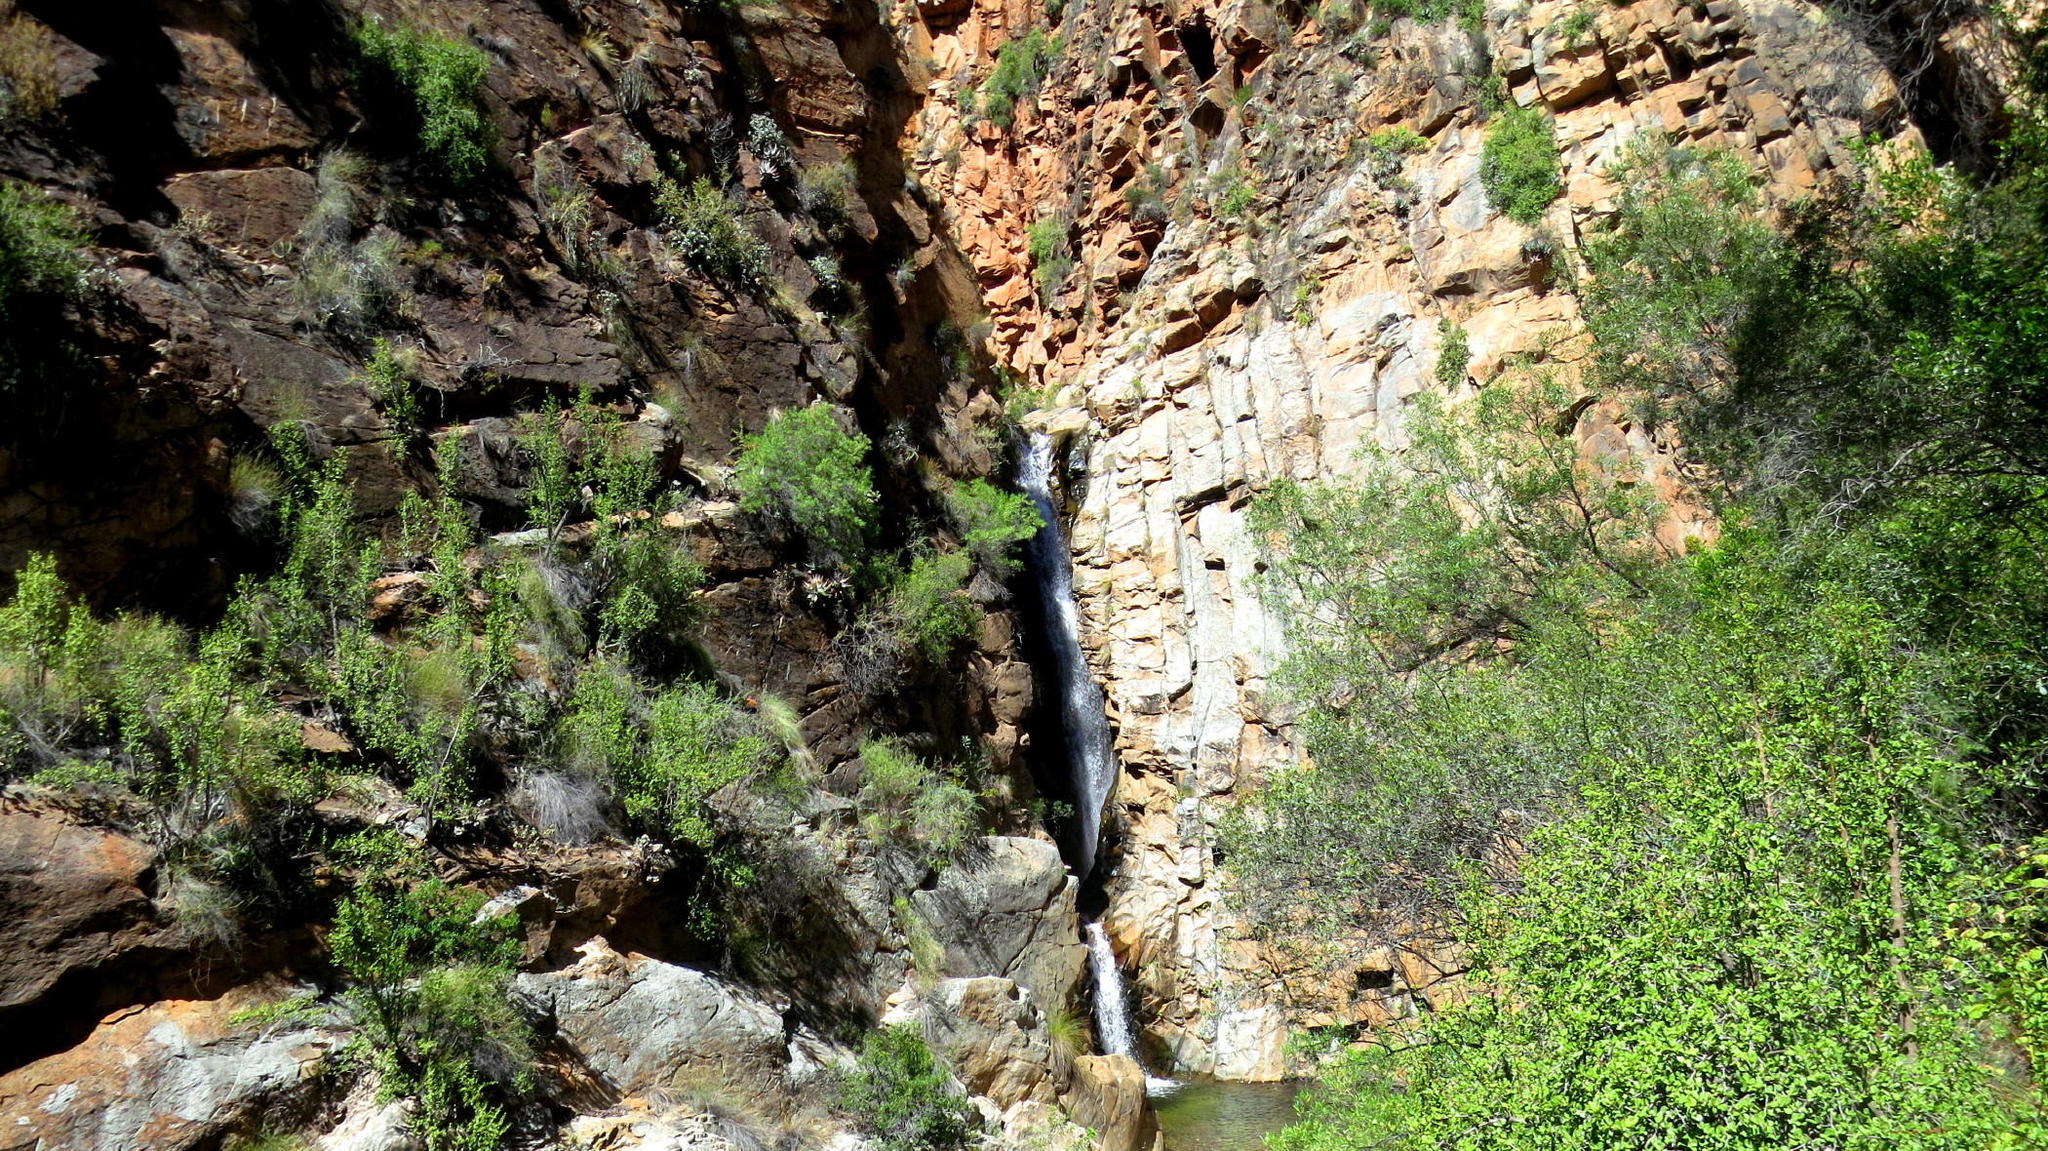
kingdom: Plantae
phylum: Tracheophyta
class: Magnoliopsida
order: Caryophyllales
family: Didiereaceae
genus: Portulacaria
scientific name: Portulacaria afra
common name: Elephant-bush
